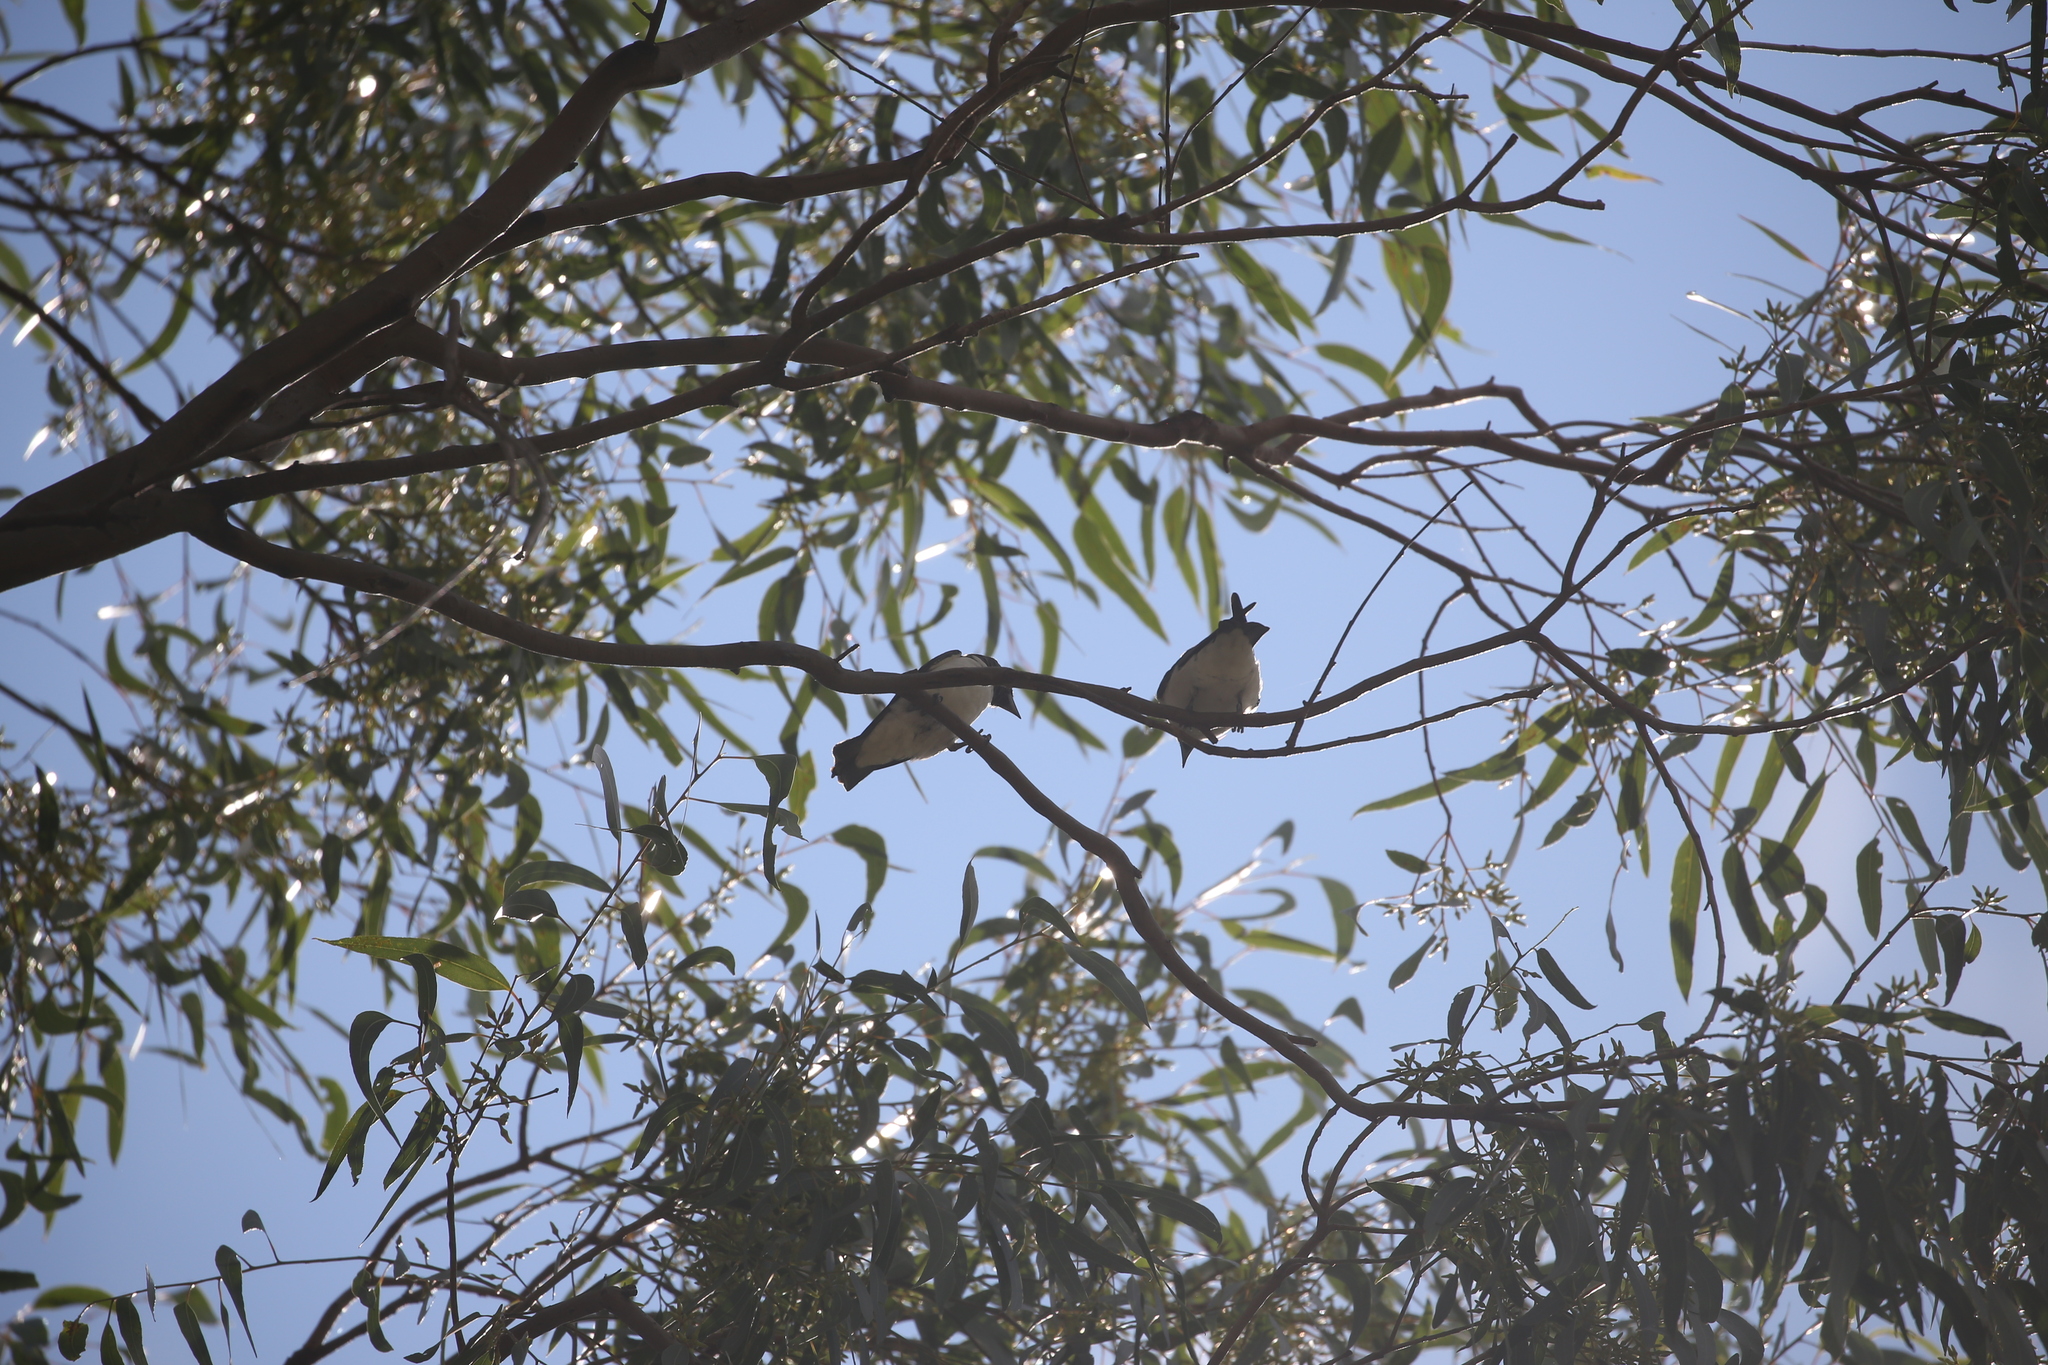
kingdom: Animalia
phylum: Chordata
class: Aves
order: Passeriformes
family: Artamidae
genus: Artamus
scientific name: Artamus leucoryn
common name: White-breasted woodswallow
